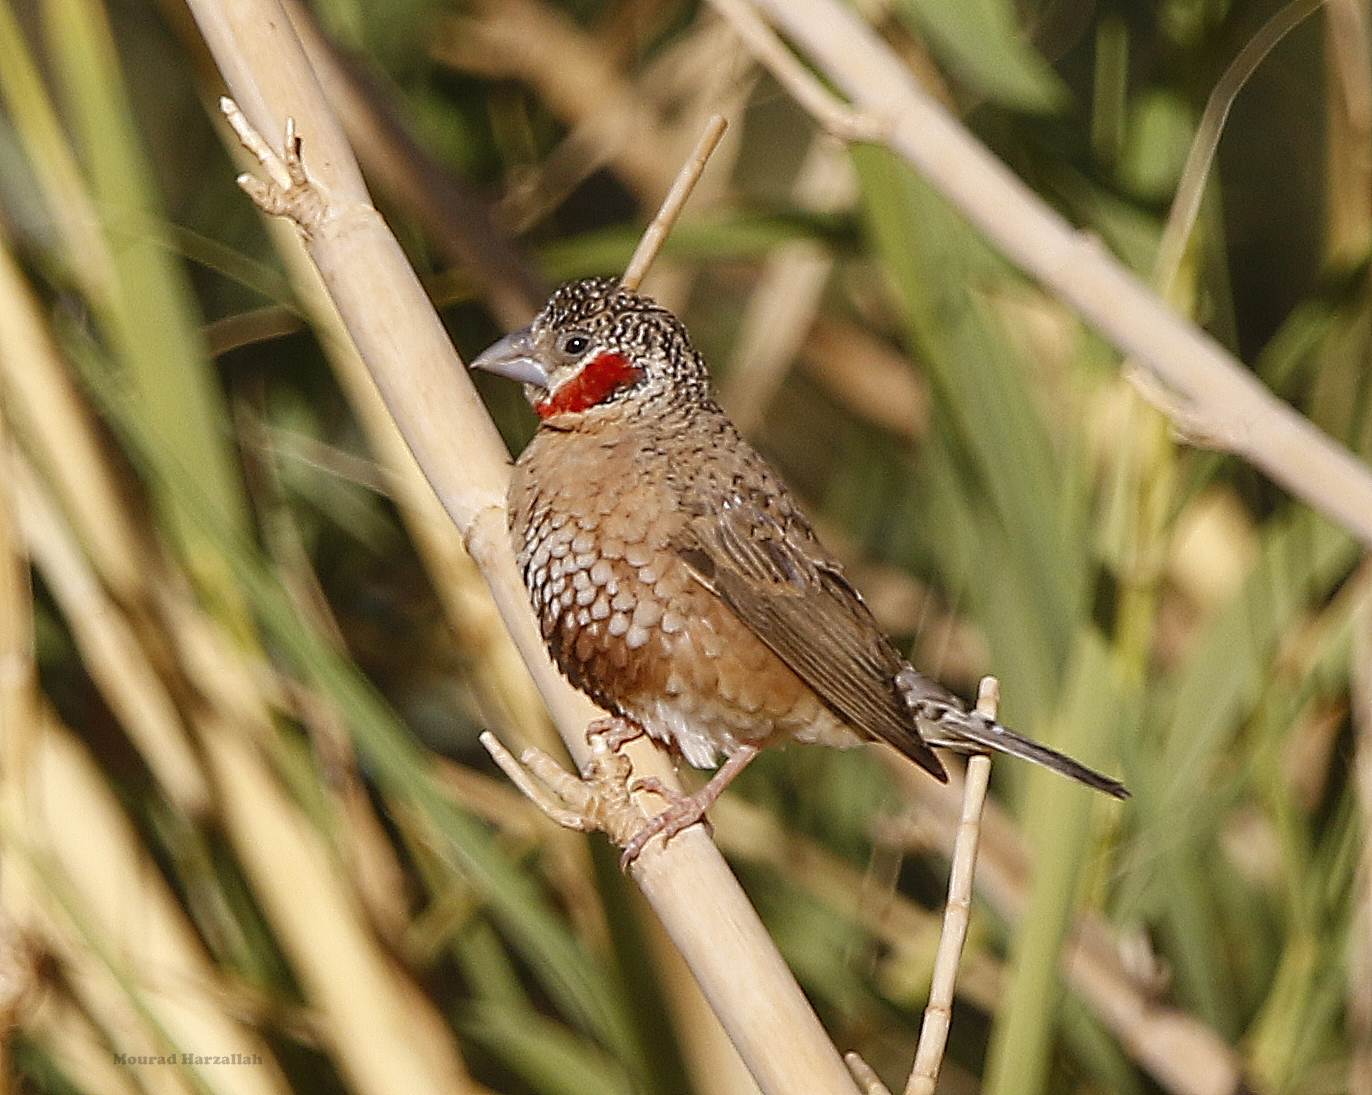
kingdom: Animalia
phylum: Chordata
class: Aves
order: Passeriformes
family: Estrildidae
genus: Amadina
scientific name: Amadina fasciata
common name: Cut-throat finch
